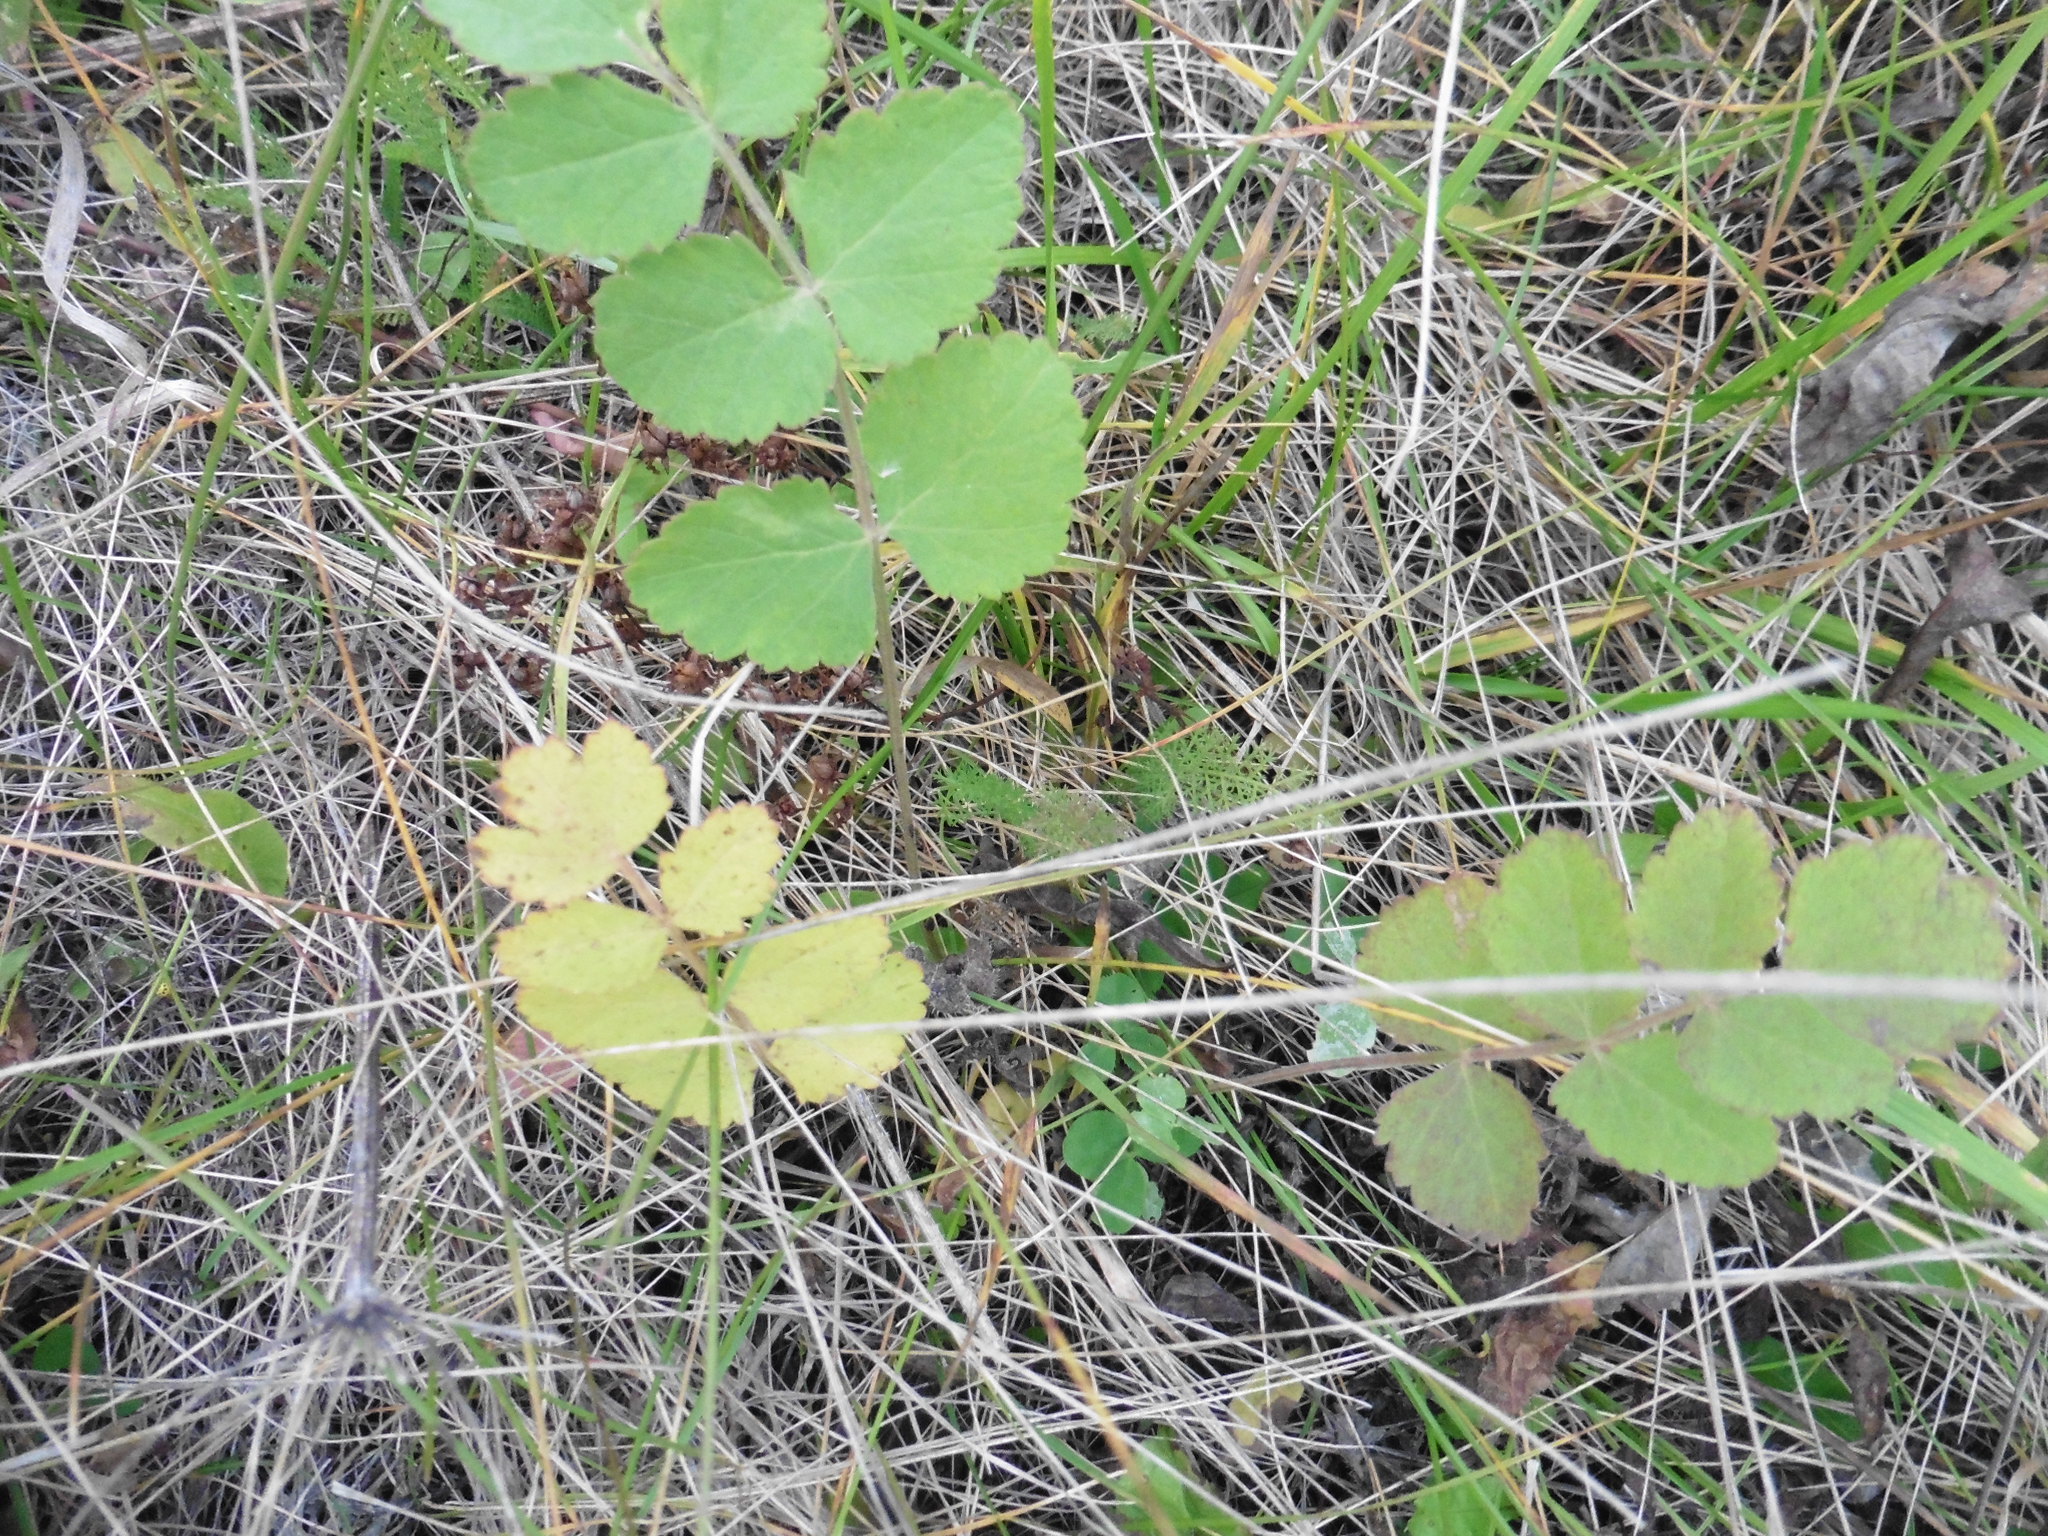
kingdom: Plantae
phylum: Tracheophyta
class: Magnoliopsida
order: Apiales
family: Apiaceae
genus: Pimpinella
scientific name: Pimpinella saxifraga
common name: Burnet-saxifrage
